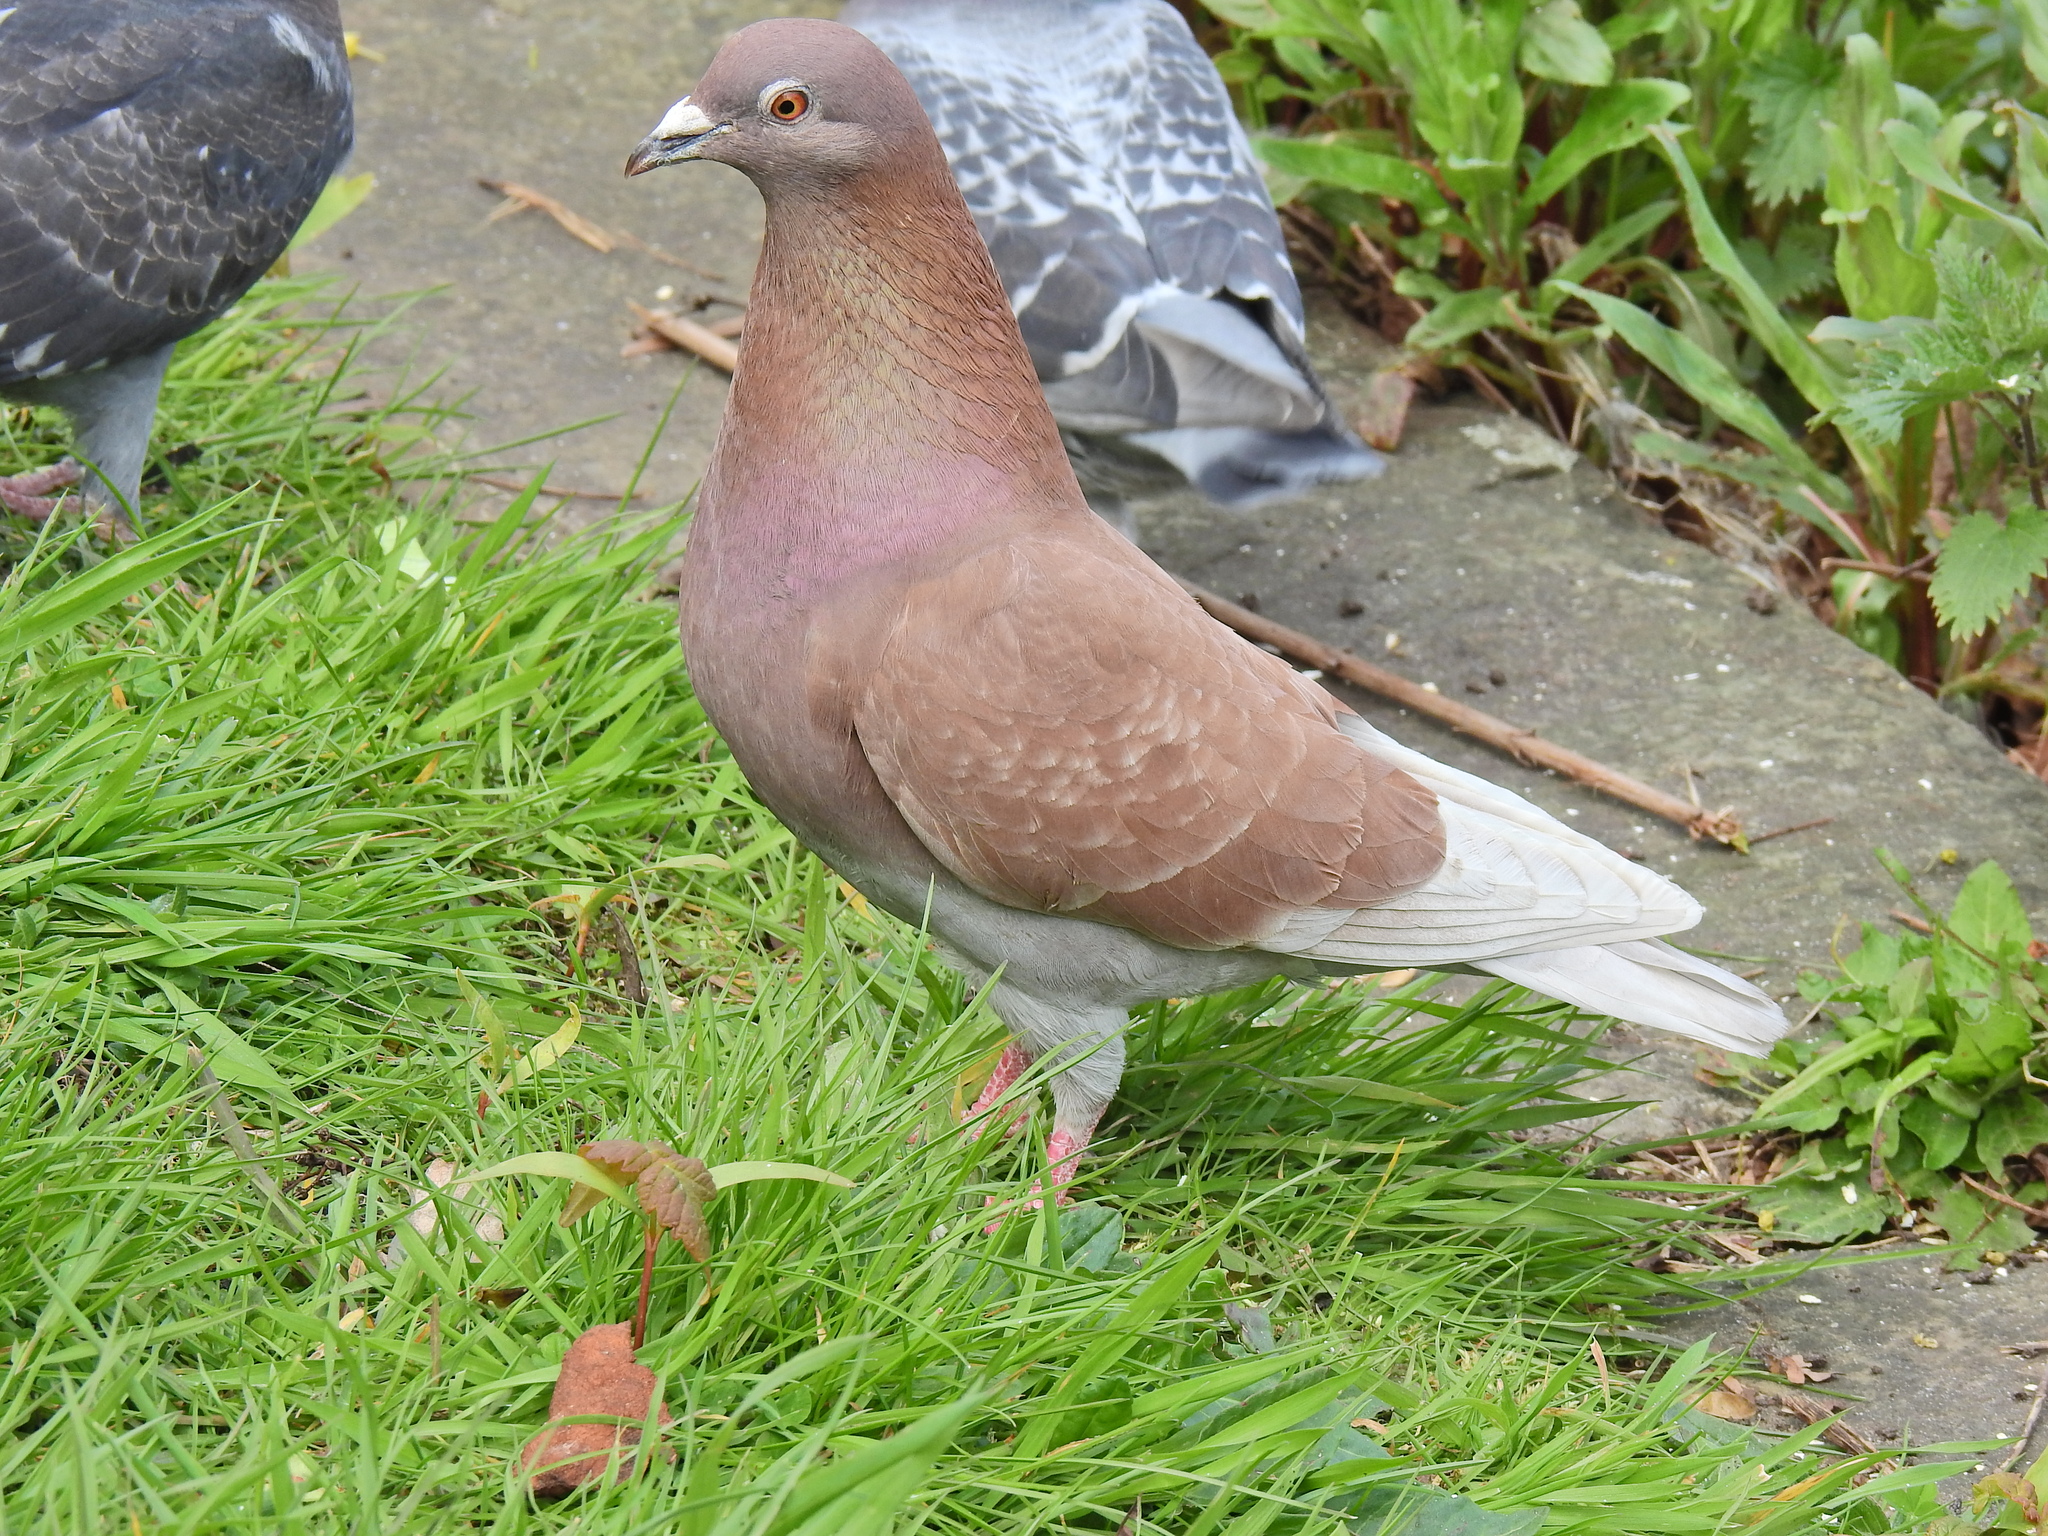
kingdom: Animalia
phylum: Chordata
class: Aves
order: Columbiformes
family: Columbidae
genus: Columba
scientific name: Columba livia
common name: Rock pigeon
